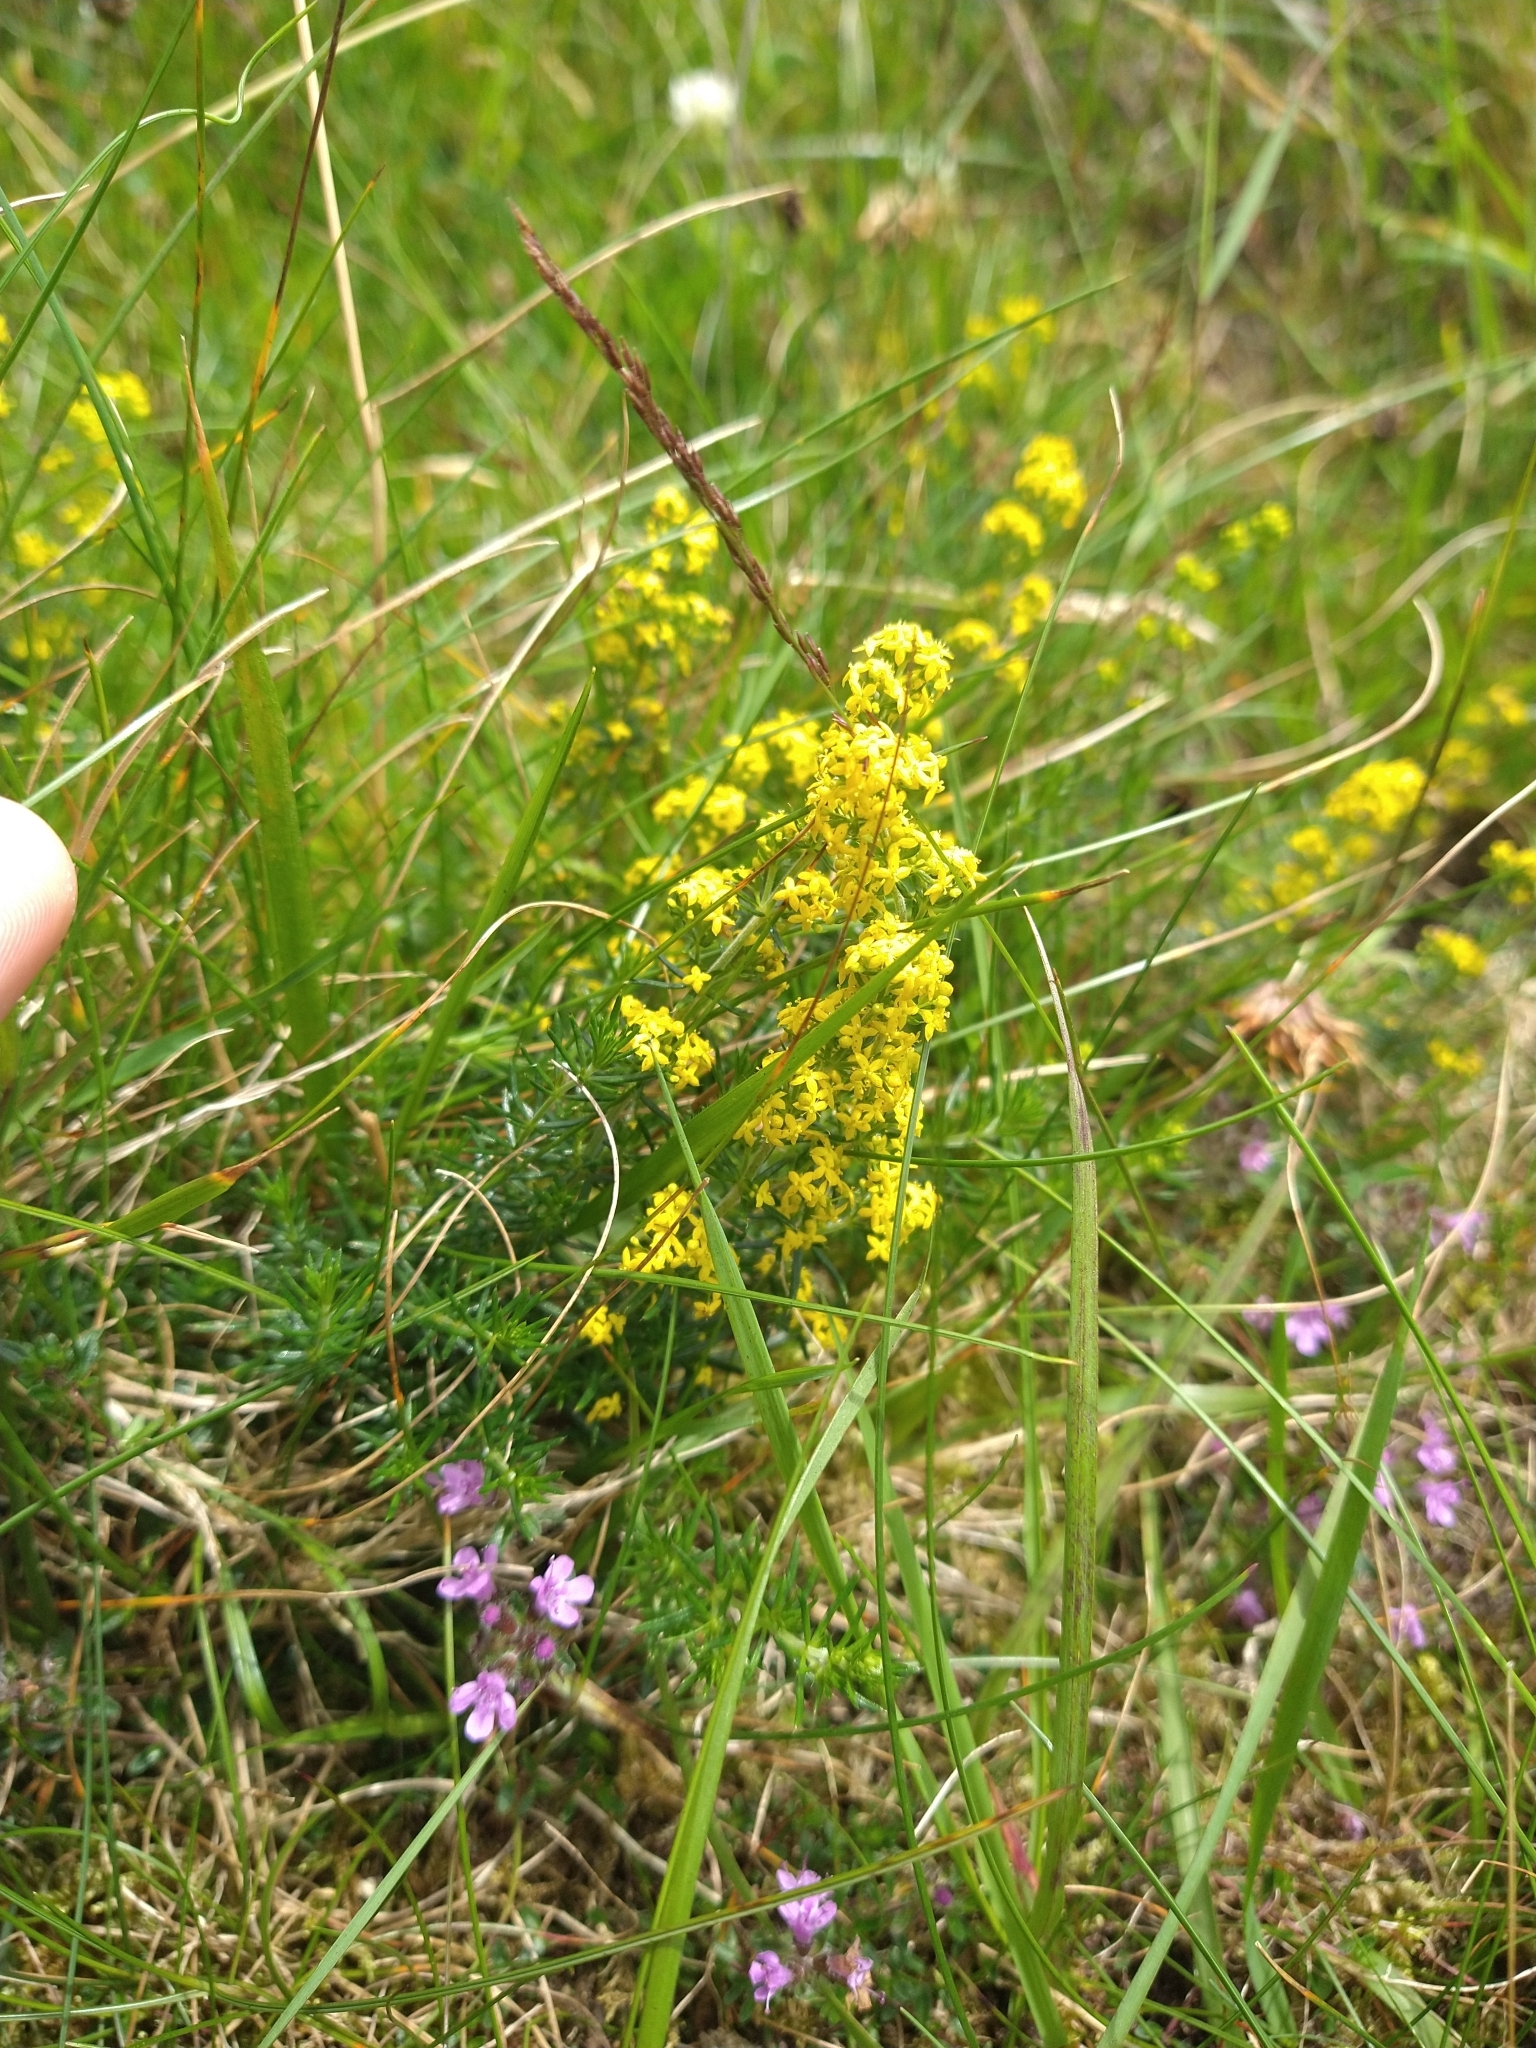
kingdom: Plantae
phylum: Tracheophyta
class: Magnoliopsida
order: Gentianales
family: Rubiaceae
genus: Galium
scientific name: Galium verum
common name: Lady's bedstraw
